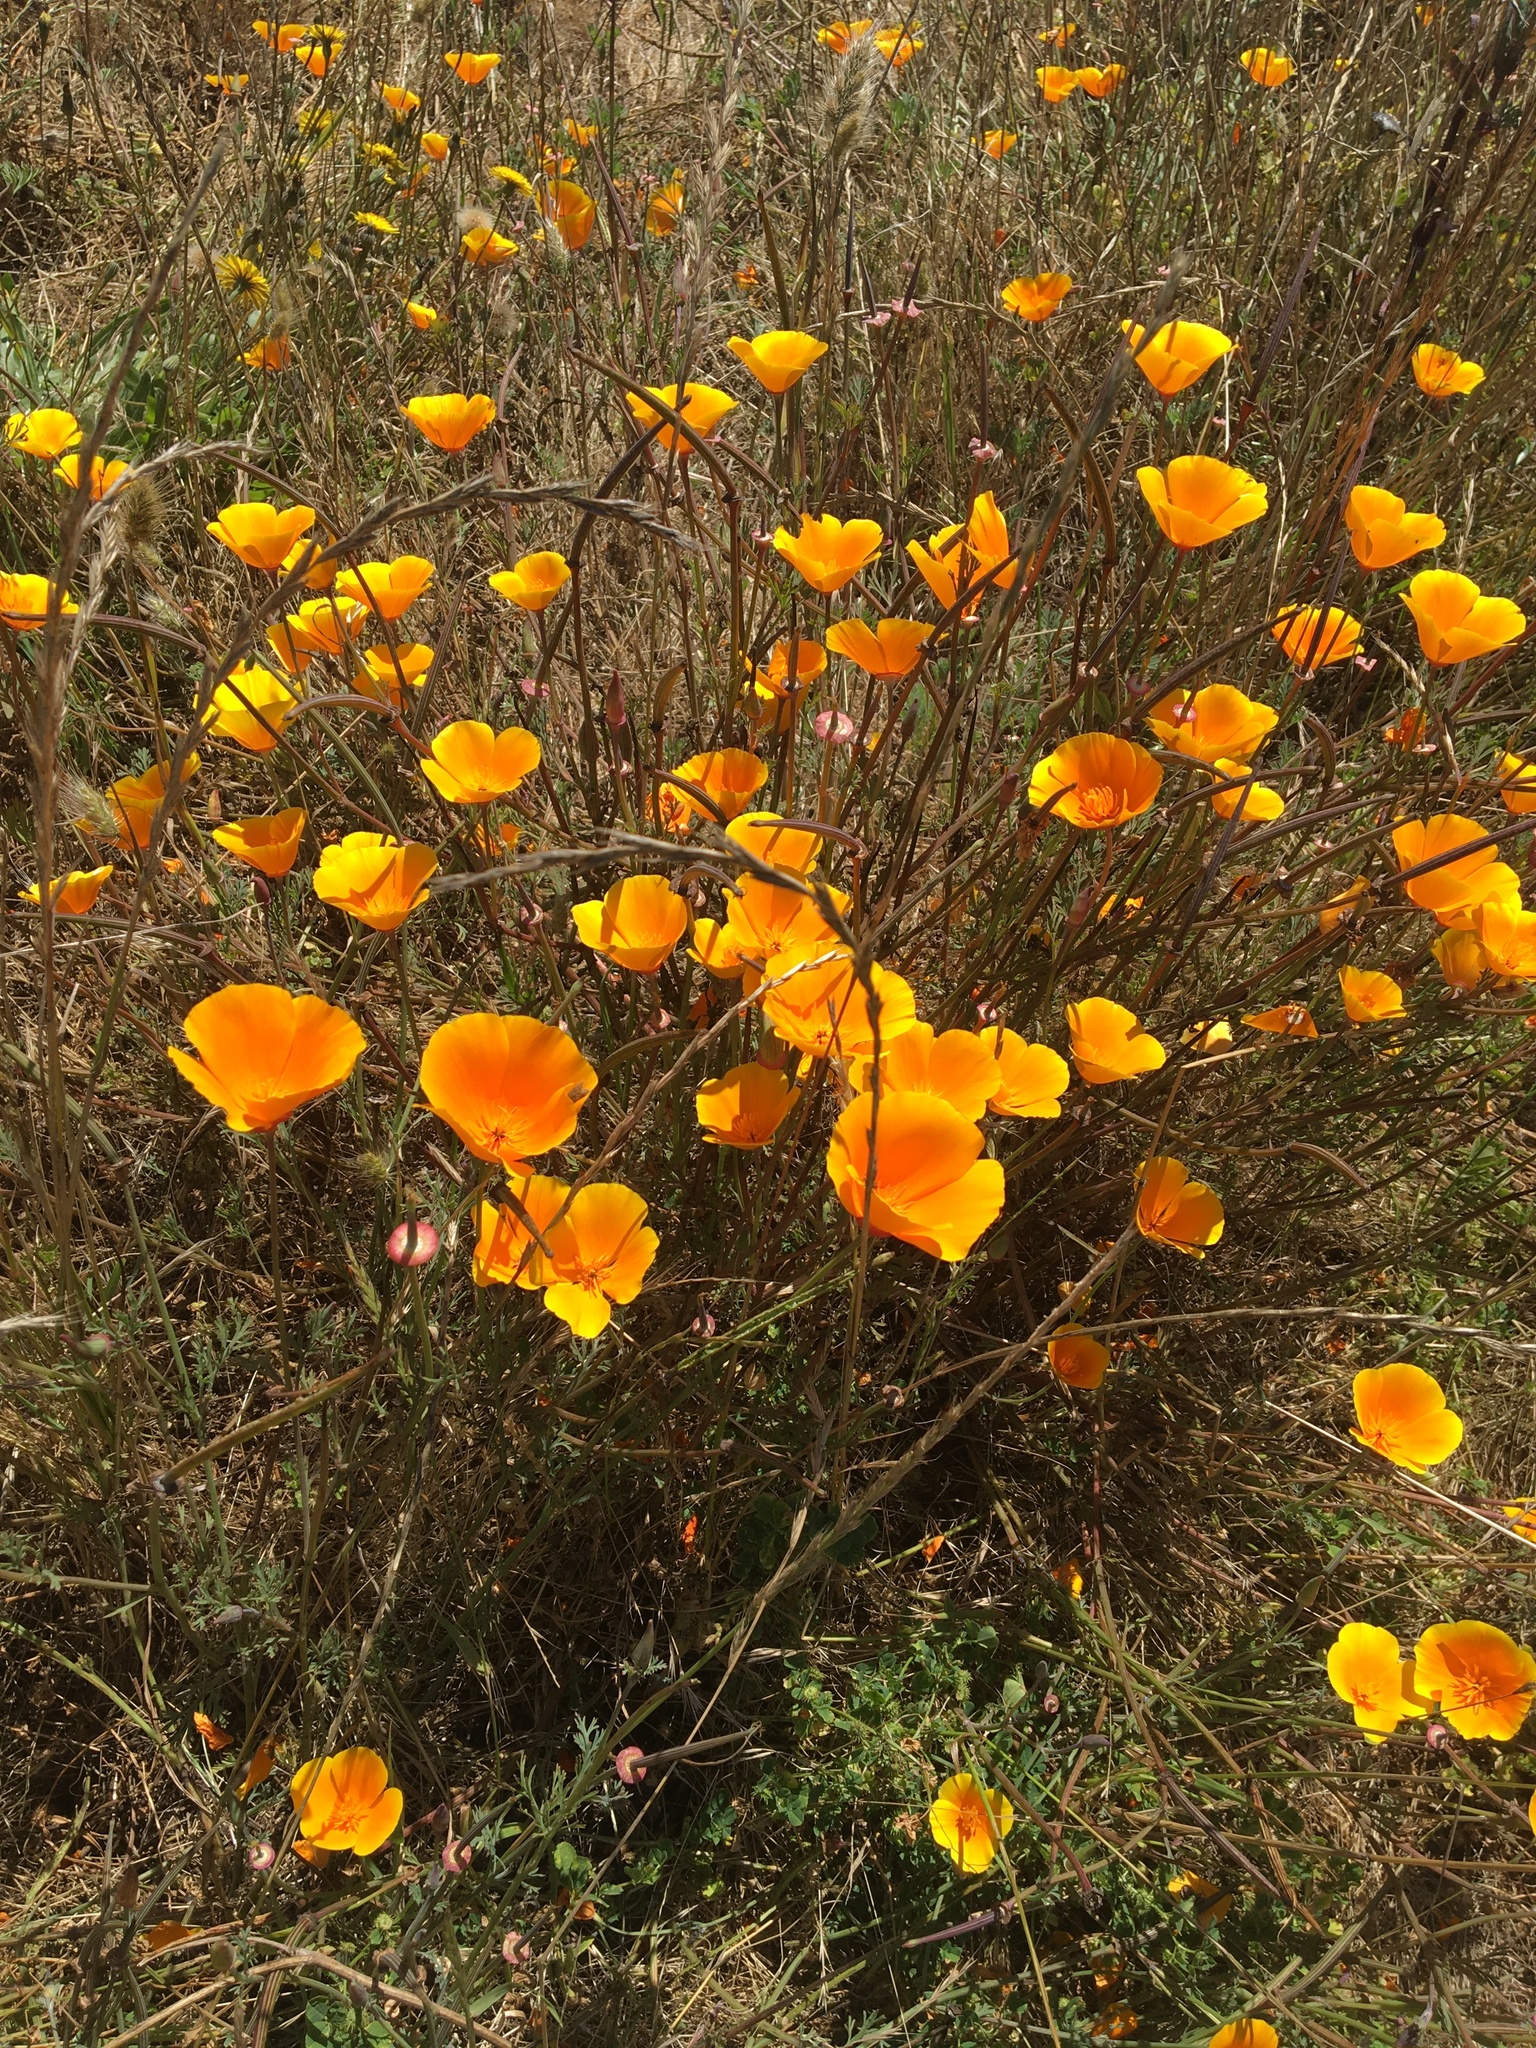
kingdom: Plantae
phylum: Tracheophyta
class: Magnoliopsida
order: Ranunculales
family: Papaveraceae
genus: Eschscholzia
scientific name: Eschscholzia californica
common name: California poppy
